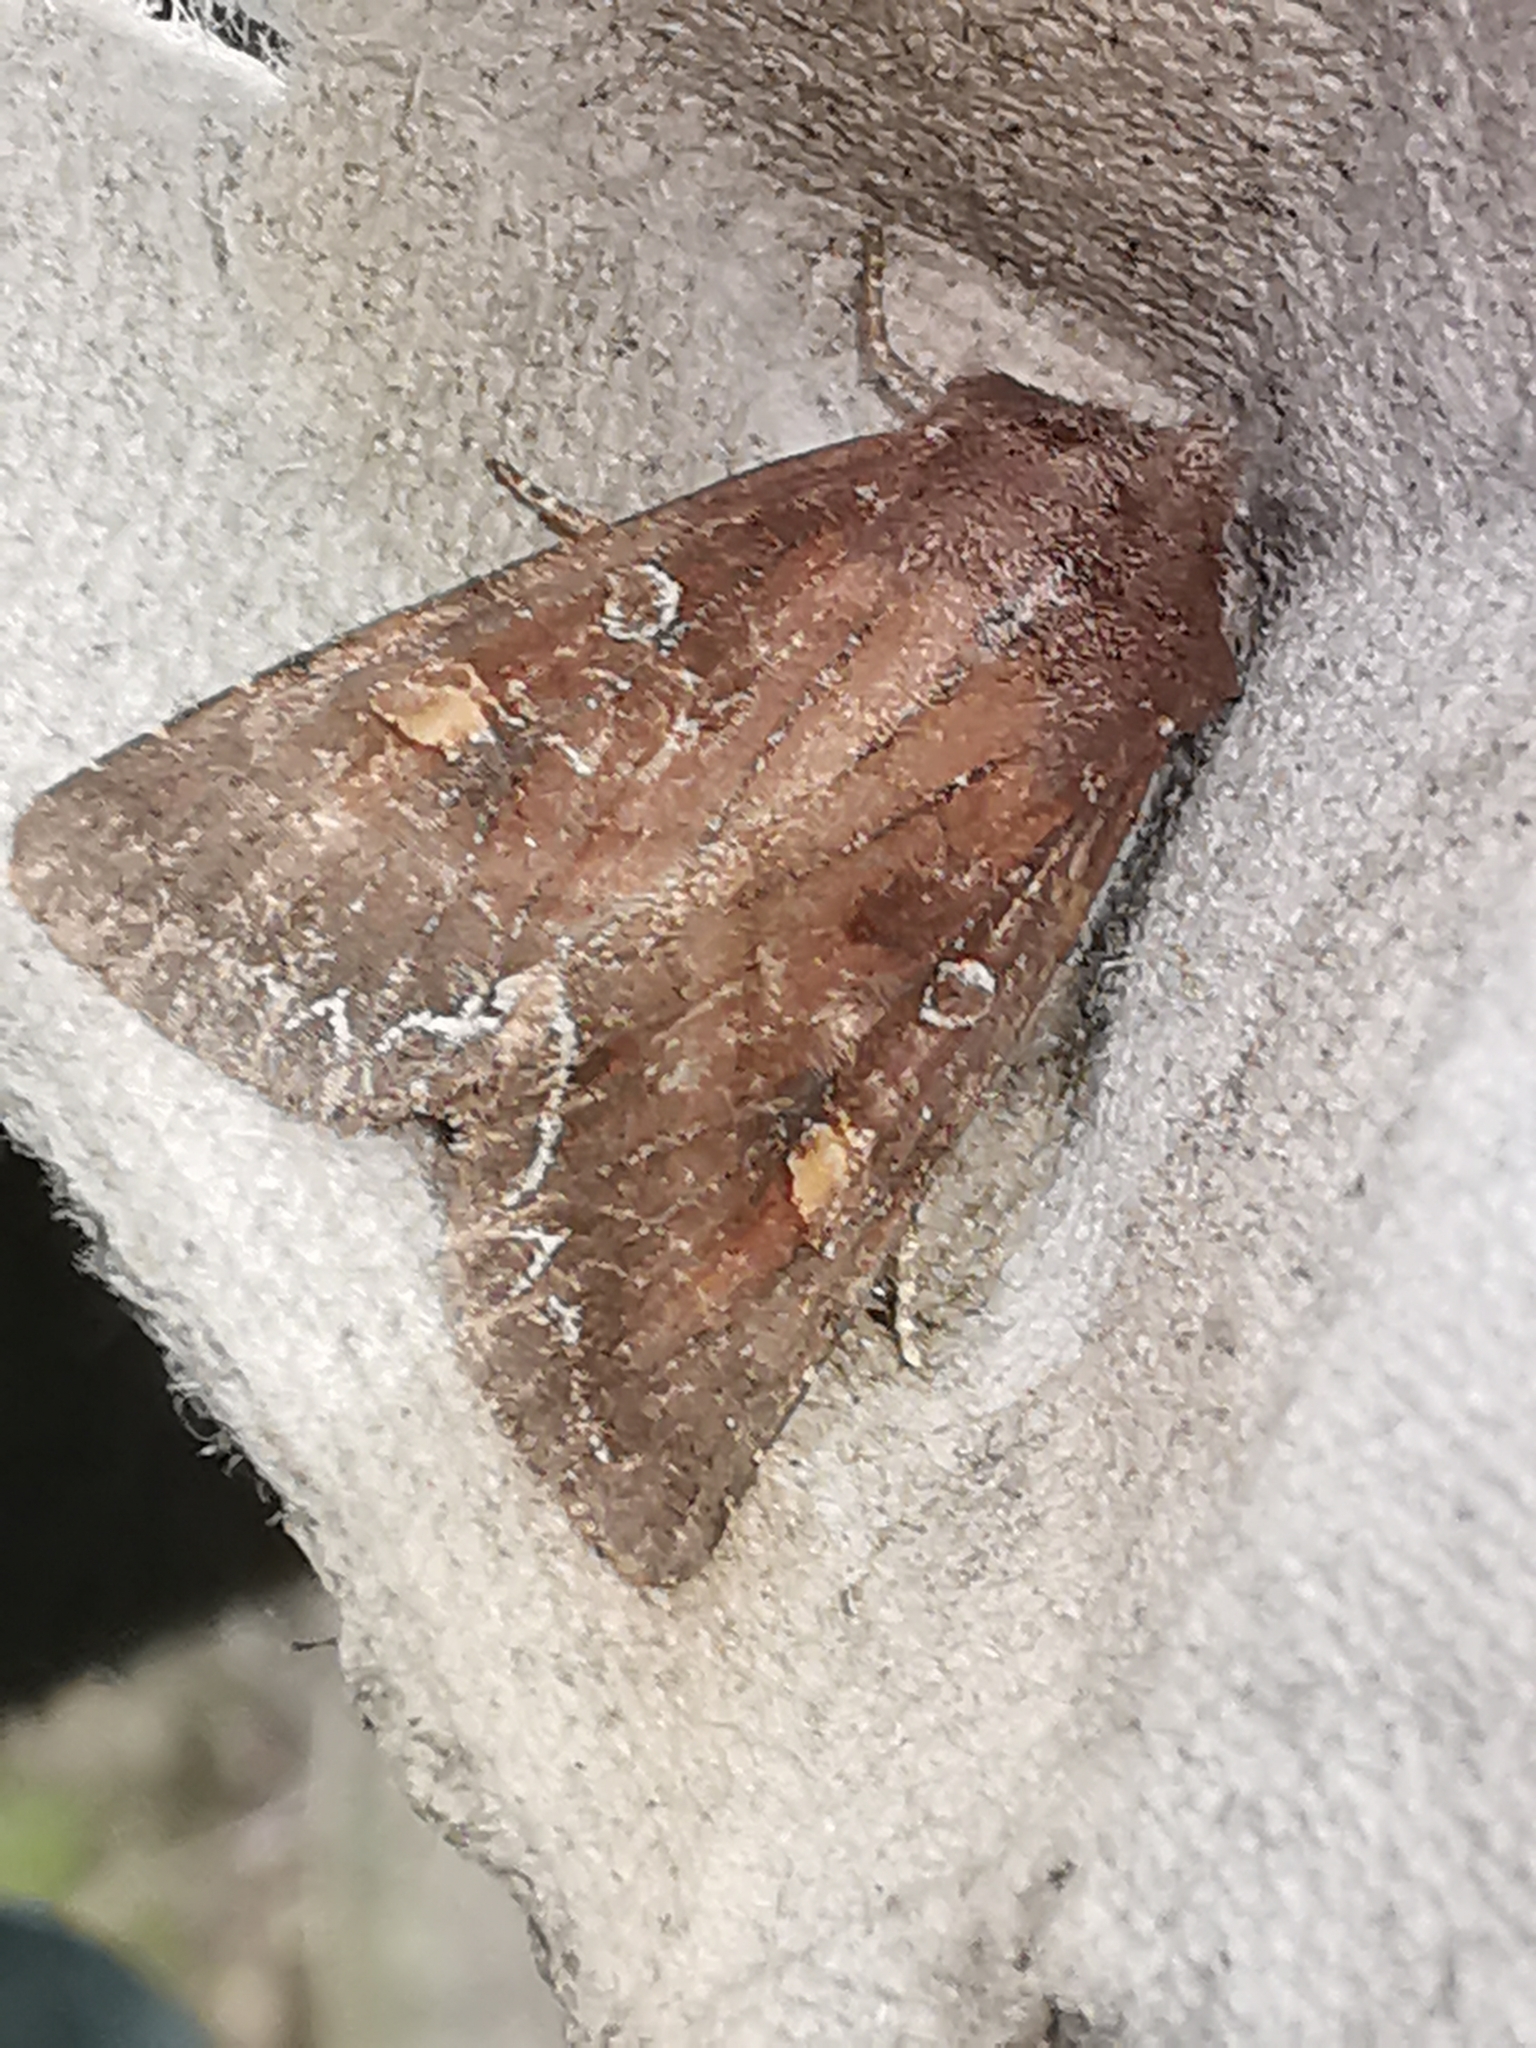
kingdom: Animalia
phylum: Arthropoda
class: Insecta
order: Lepidoptera
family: Noctuidae
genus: Lacanobia
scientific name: Lacanobia oleracea
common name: Bright-line brown-eye
